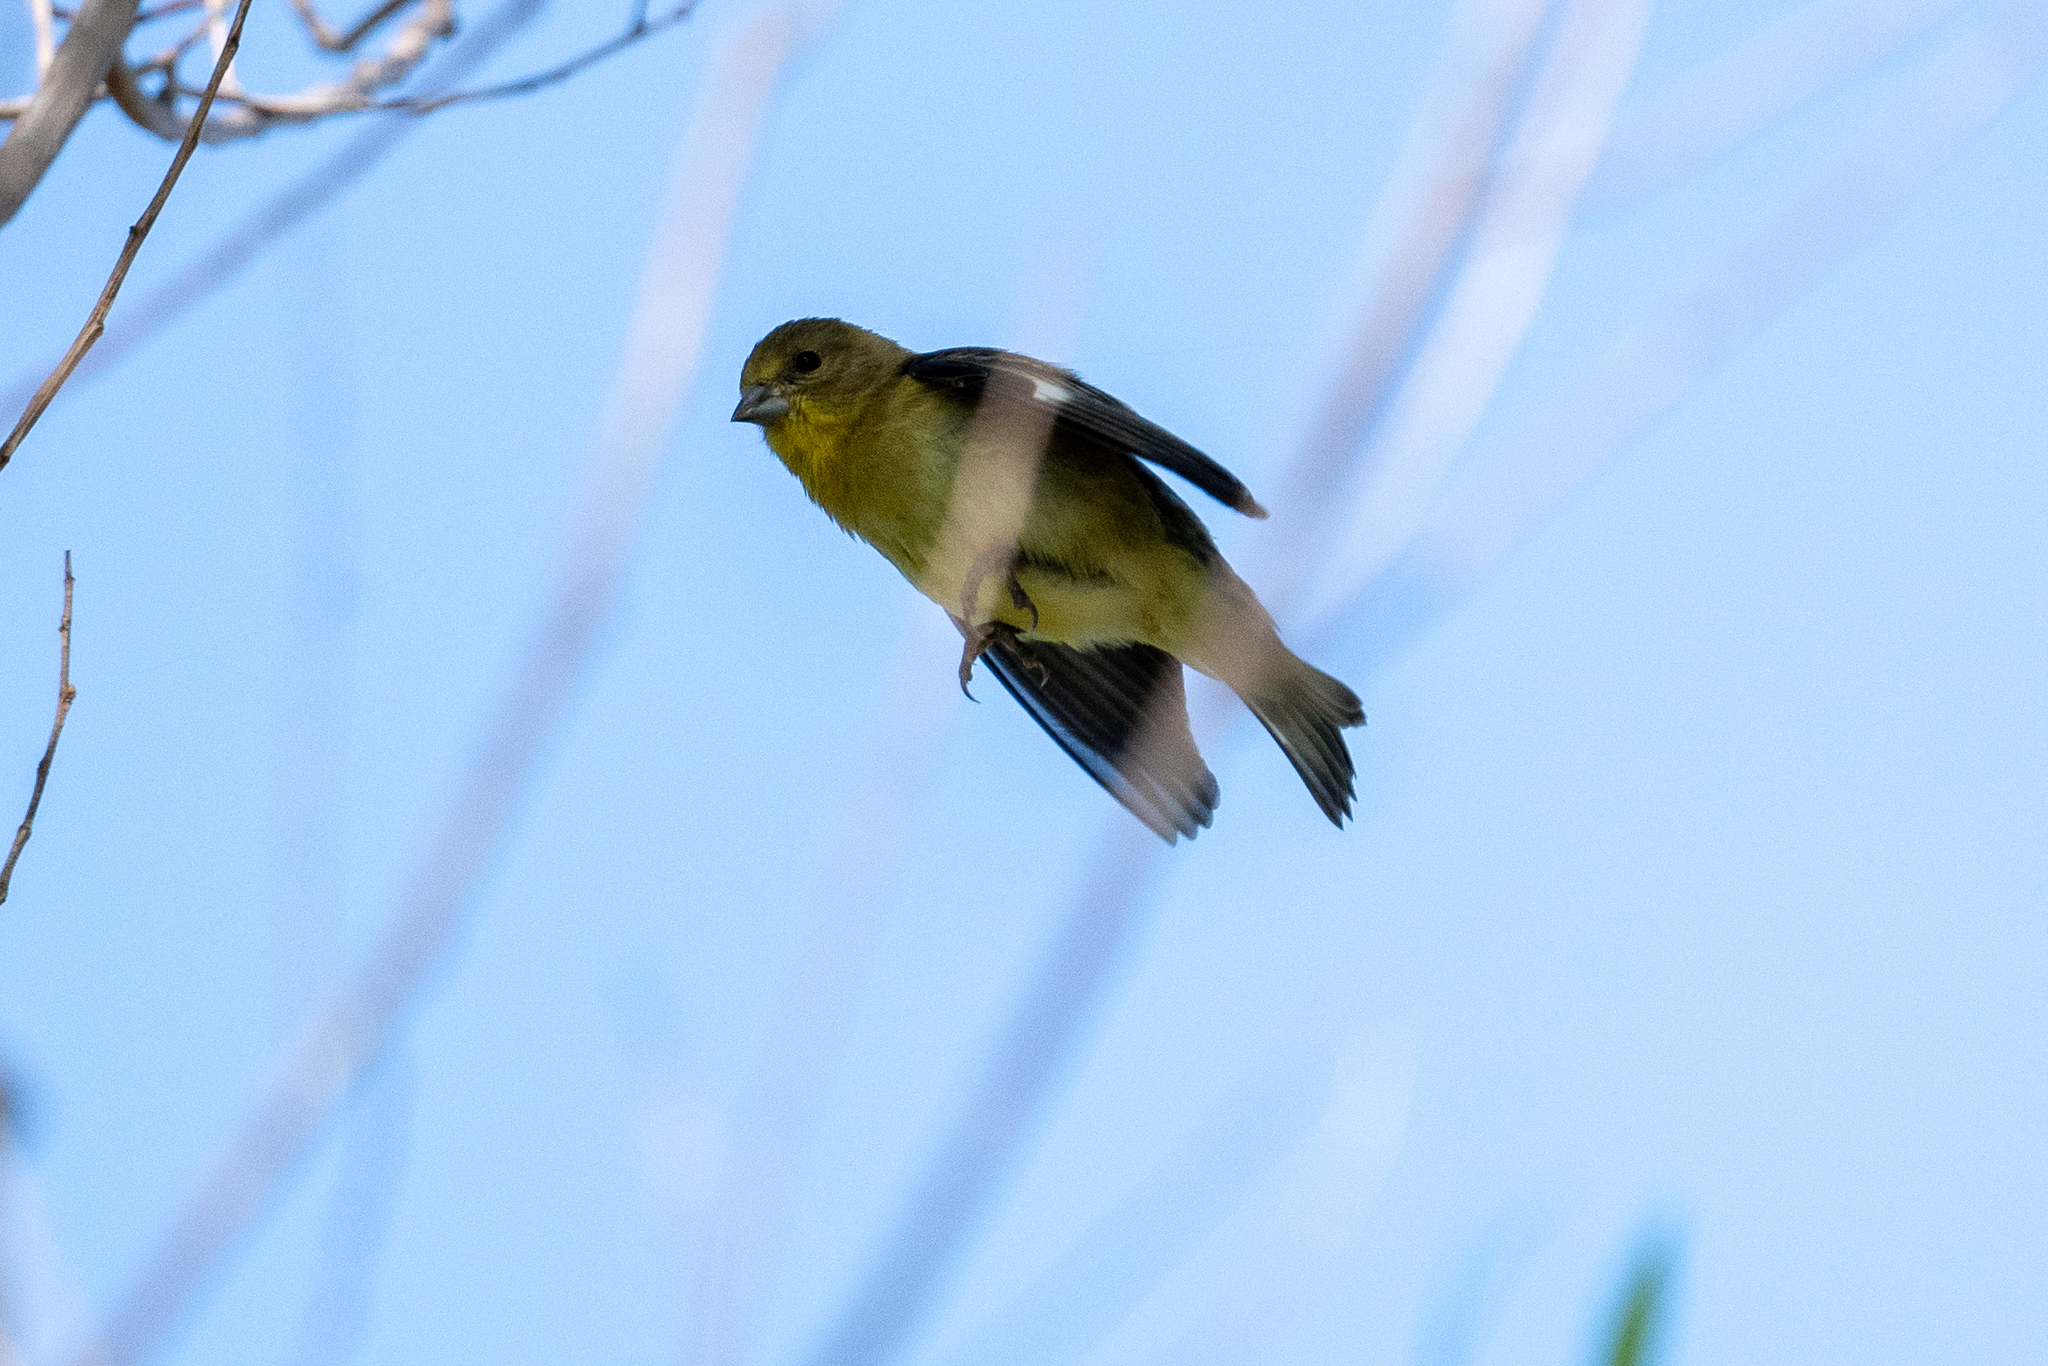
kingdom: Animalia
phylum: Chordata
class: Aves
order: Passeriformes
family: Fringillidae
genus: Spinus
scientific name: Spinus psaltria
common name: Lesser goldfinch
